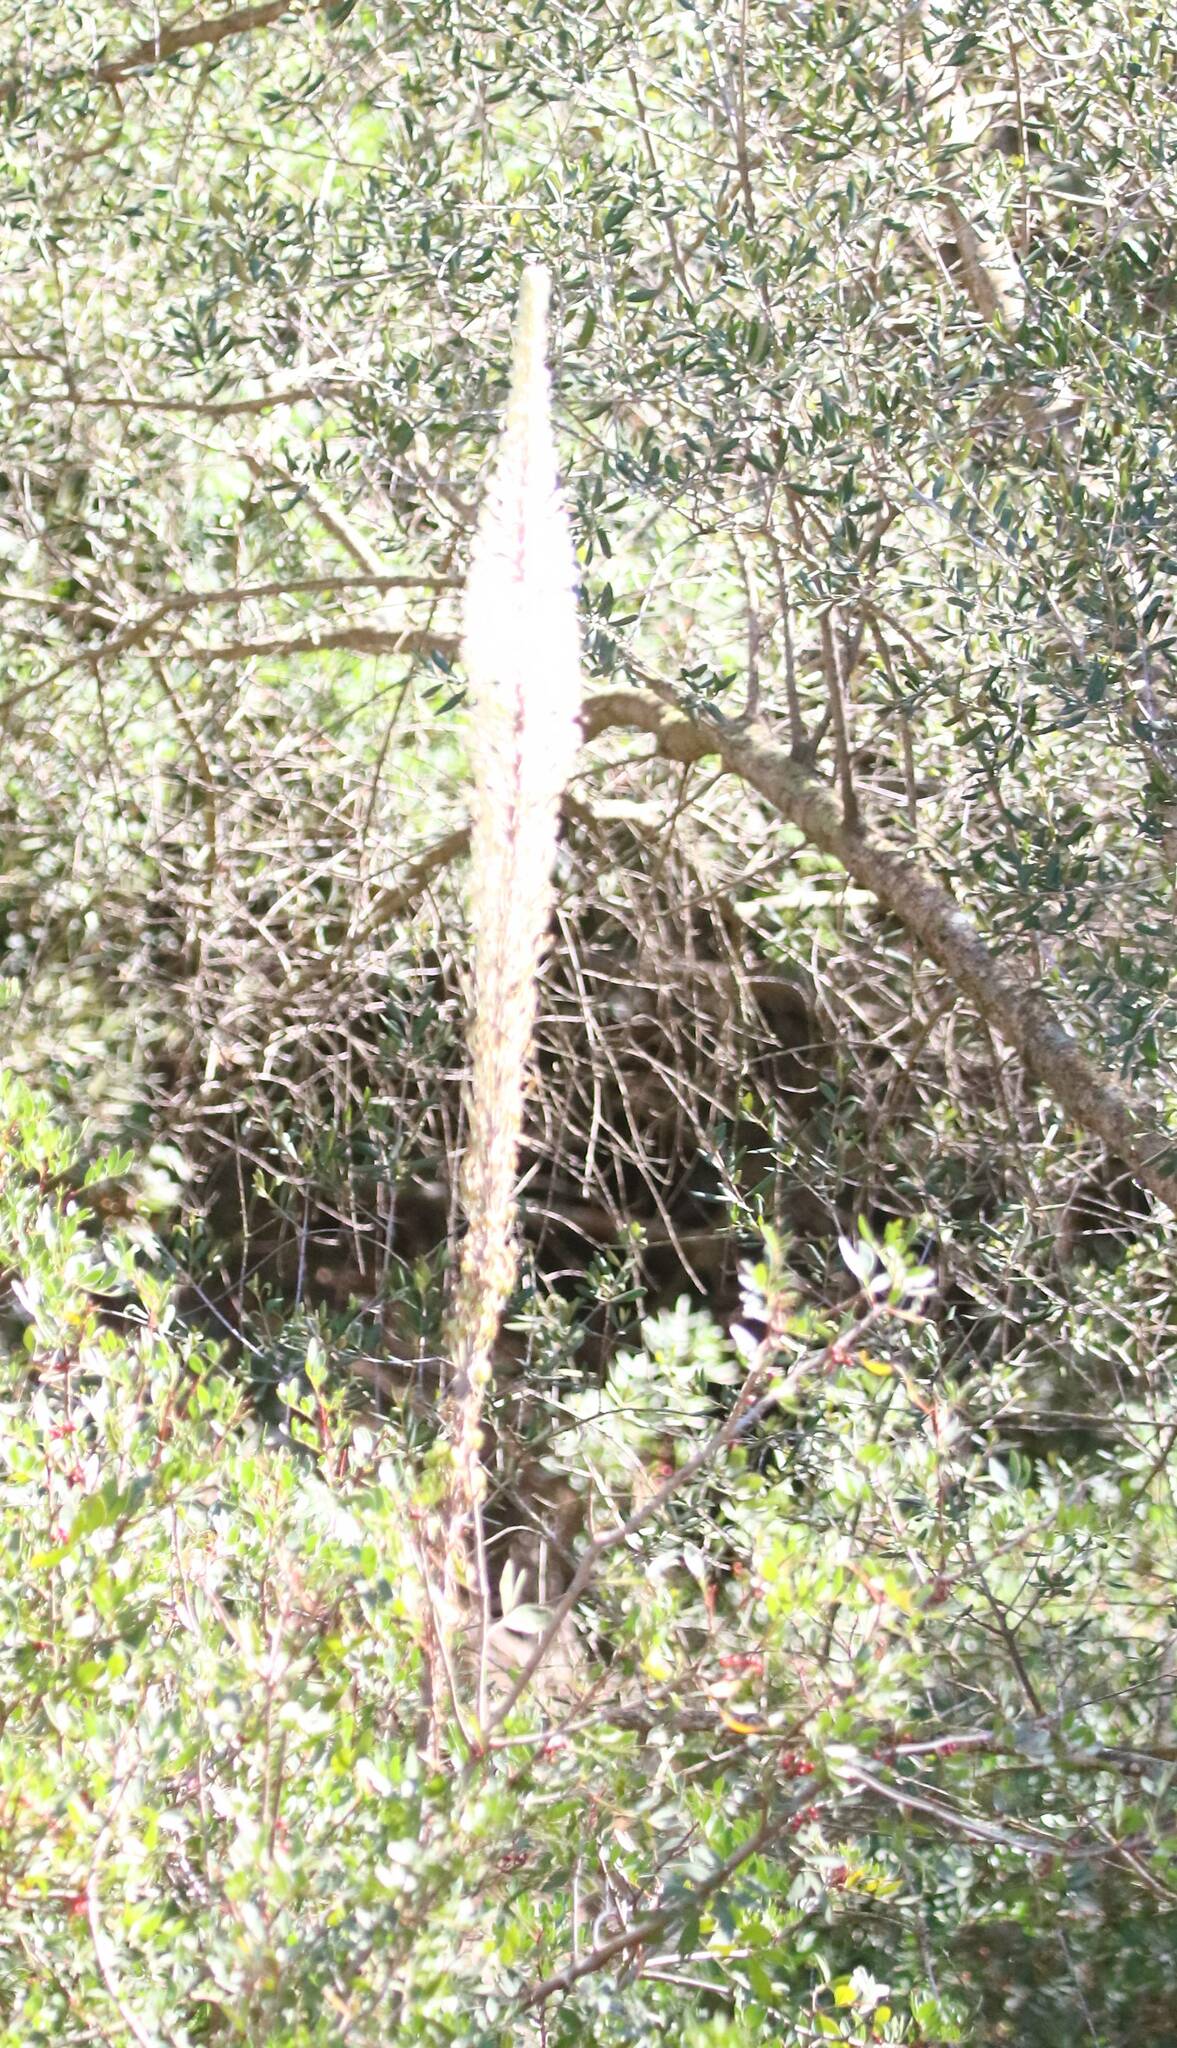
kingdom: Plantae
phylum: Tracheophyta
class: Liliopsida
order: Asparagales
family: Asparagaceae
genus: Drimia
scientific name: Drimia numidica
